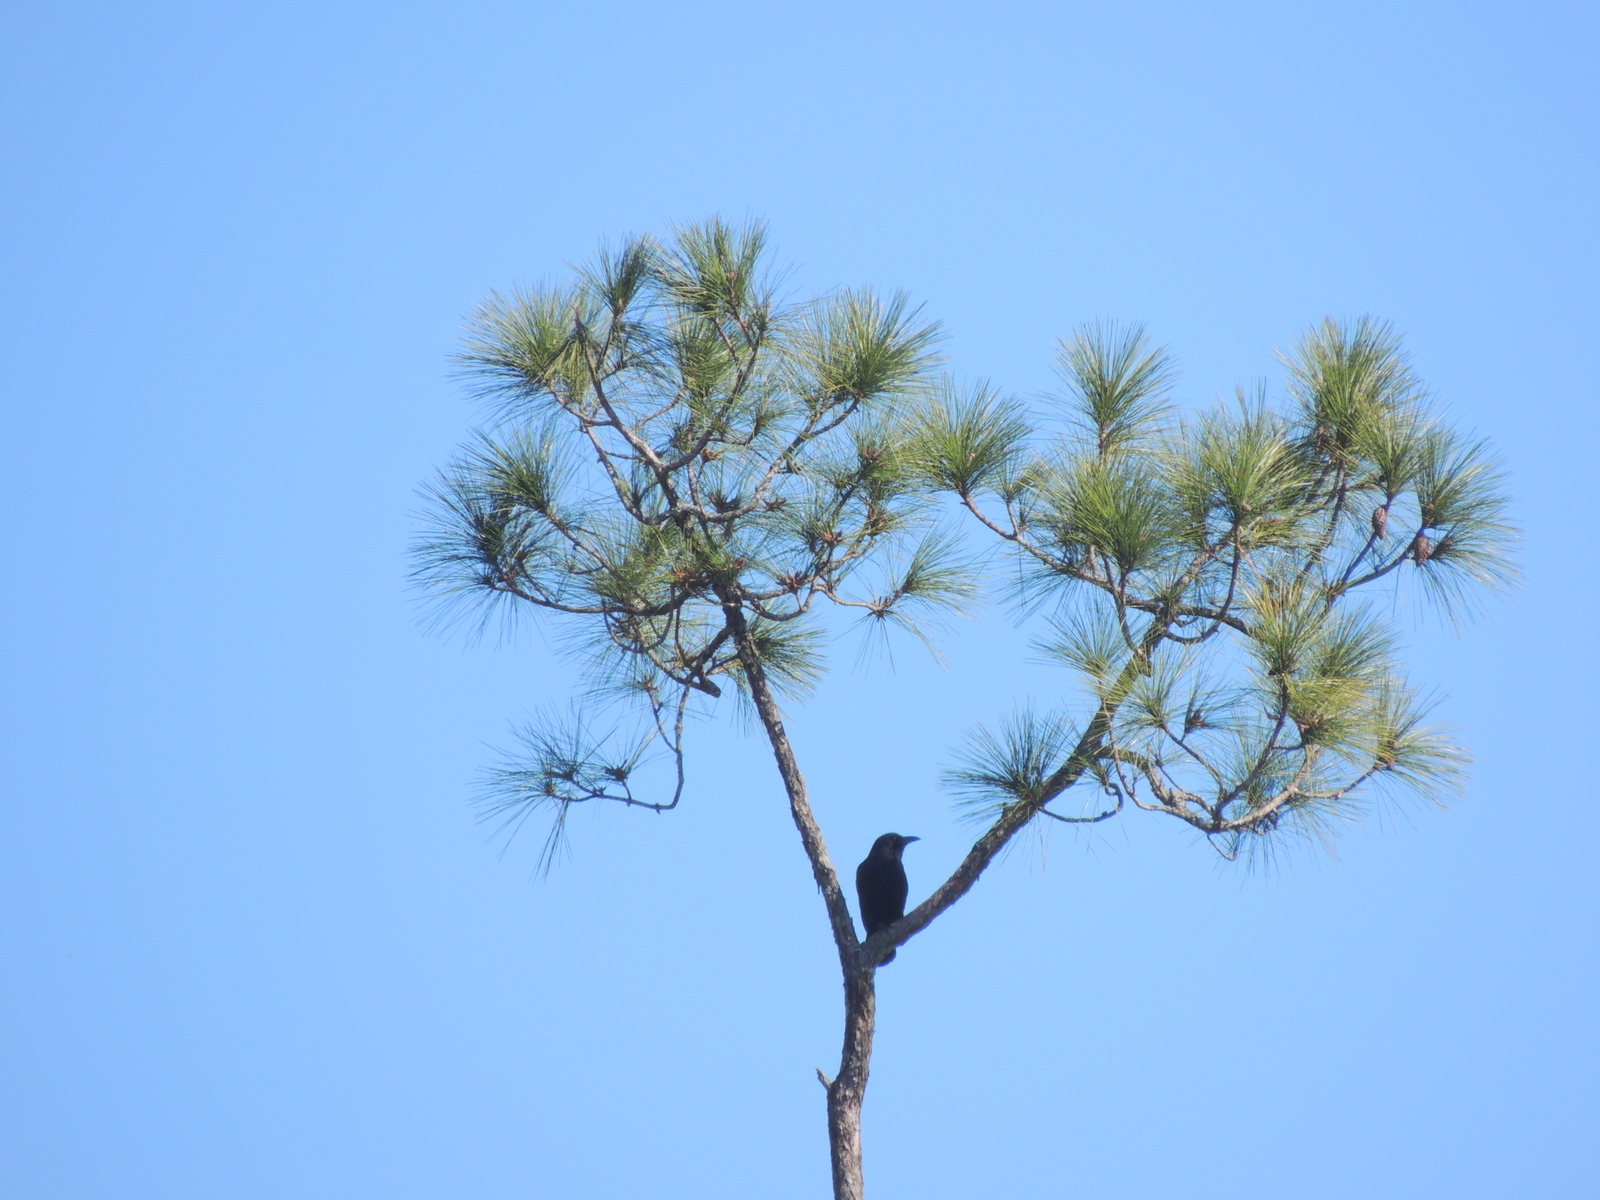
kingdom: Animalia
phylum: Chordata
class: Aves
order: Passeriformes
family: Corvidae
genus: Corvus
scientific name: Corvus
